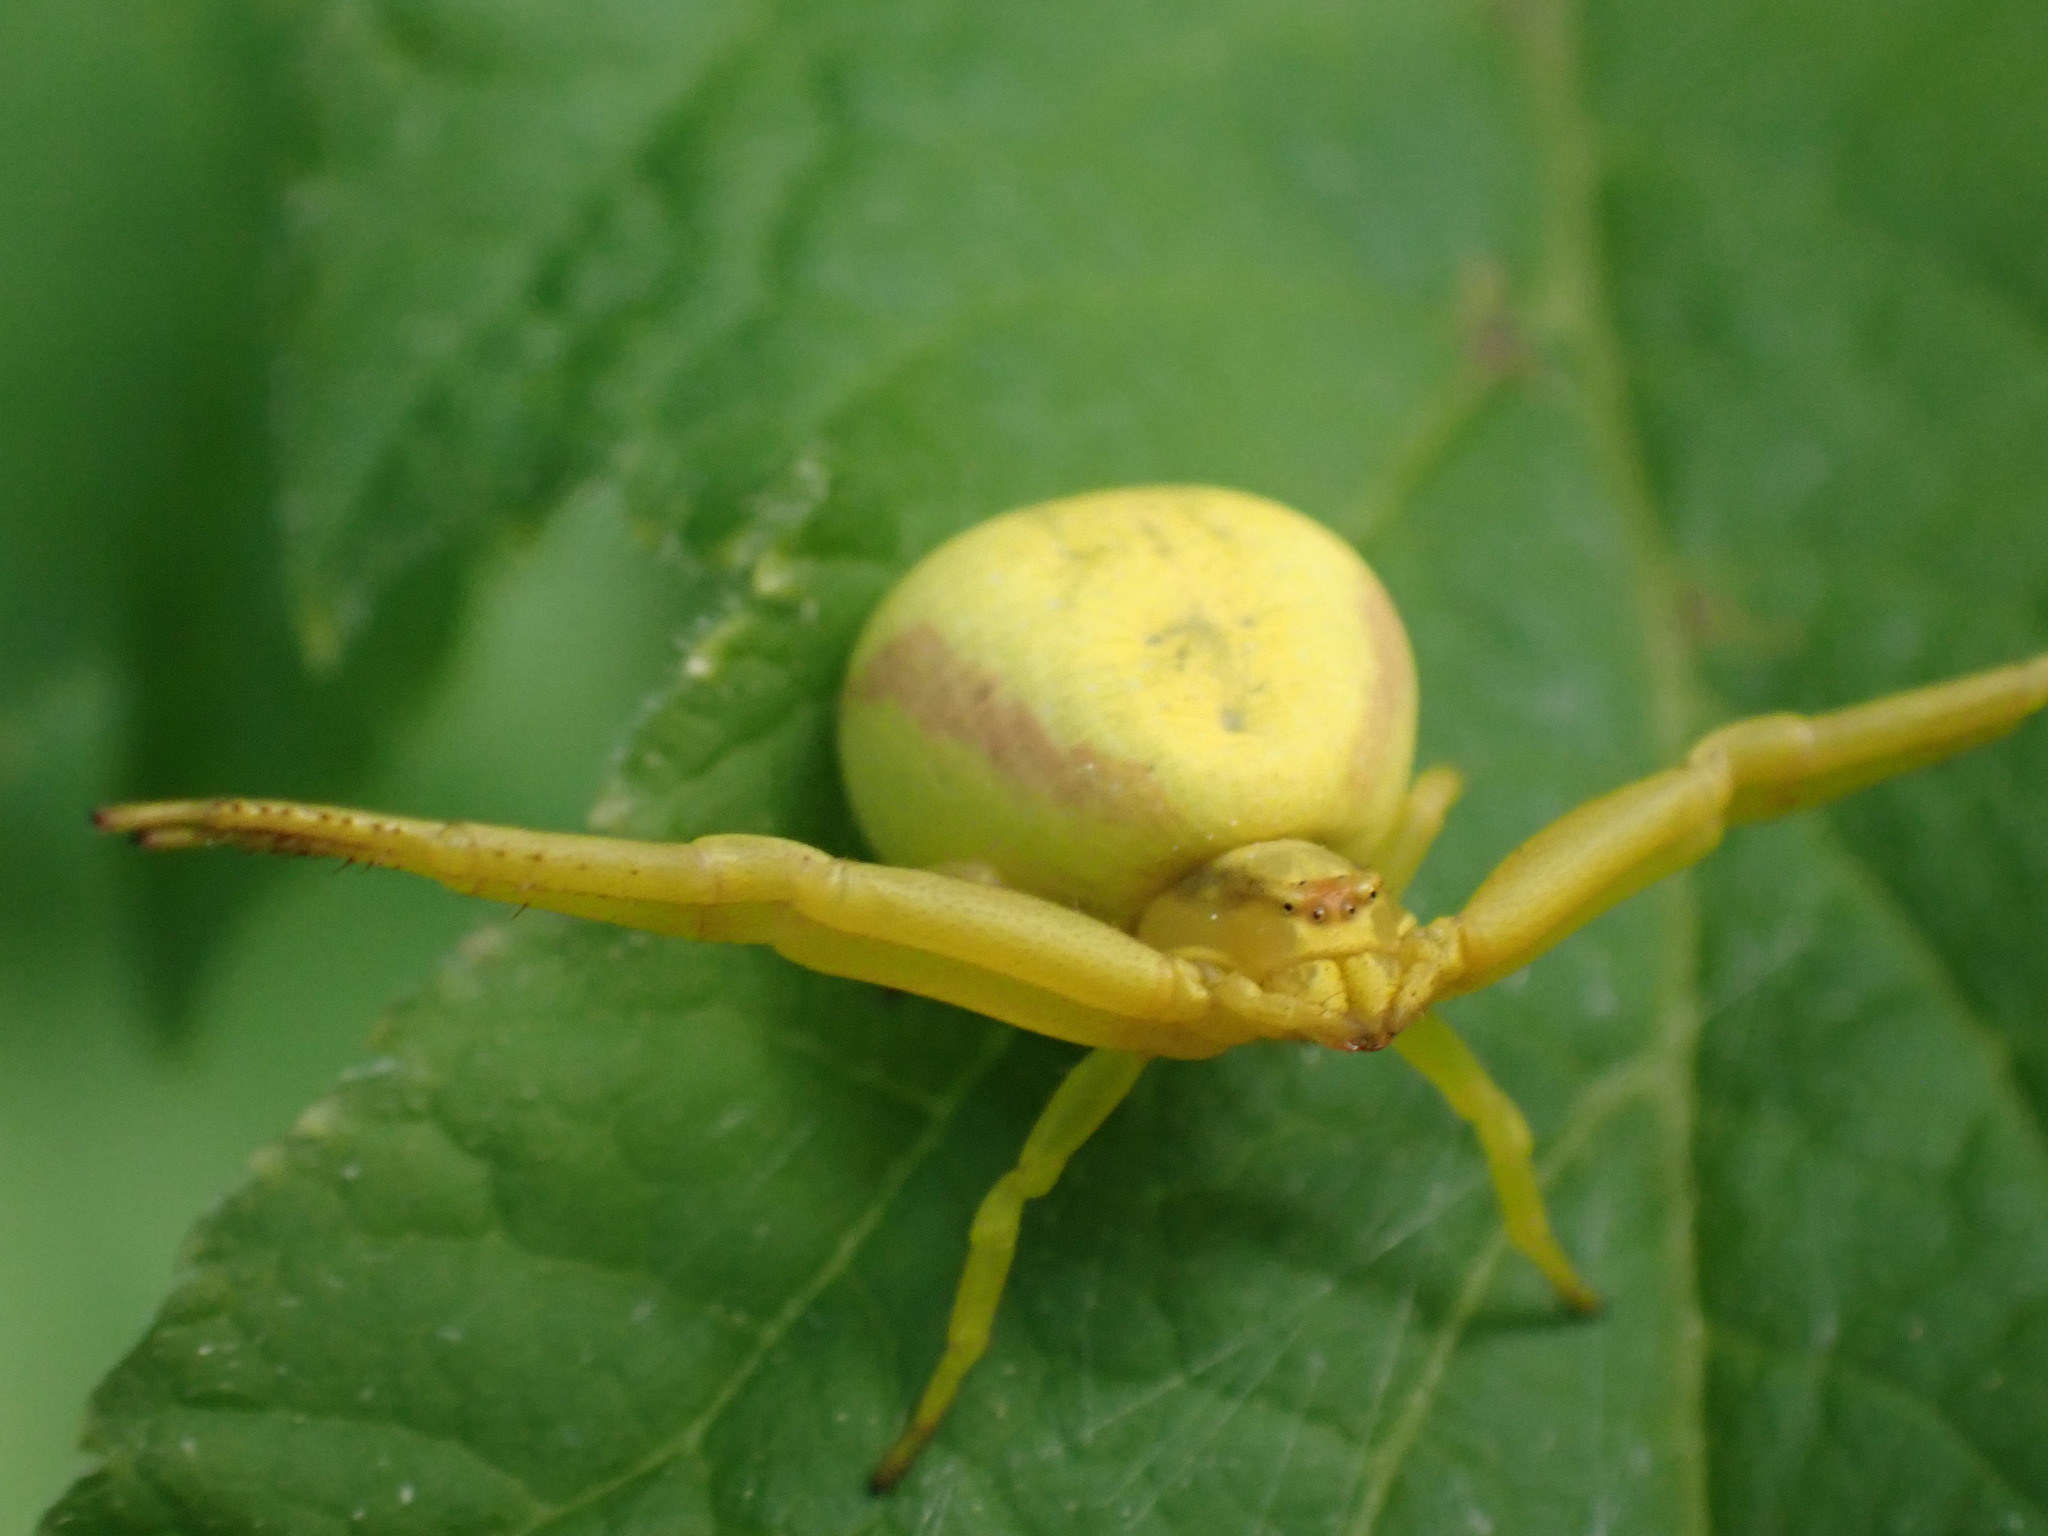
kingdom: Animalia
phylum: Arthropoda
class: Arachnida
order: Araneae
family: Thomisidae
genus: Misumena
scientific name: Misumena vatia
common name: Goldenrod crab spider
